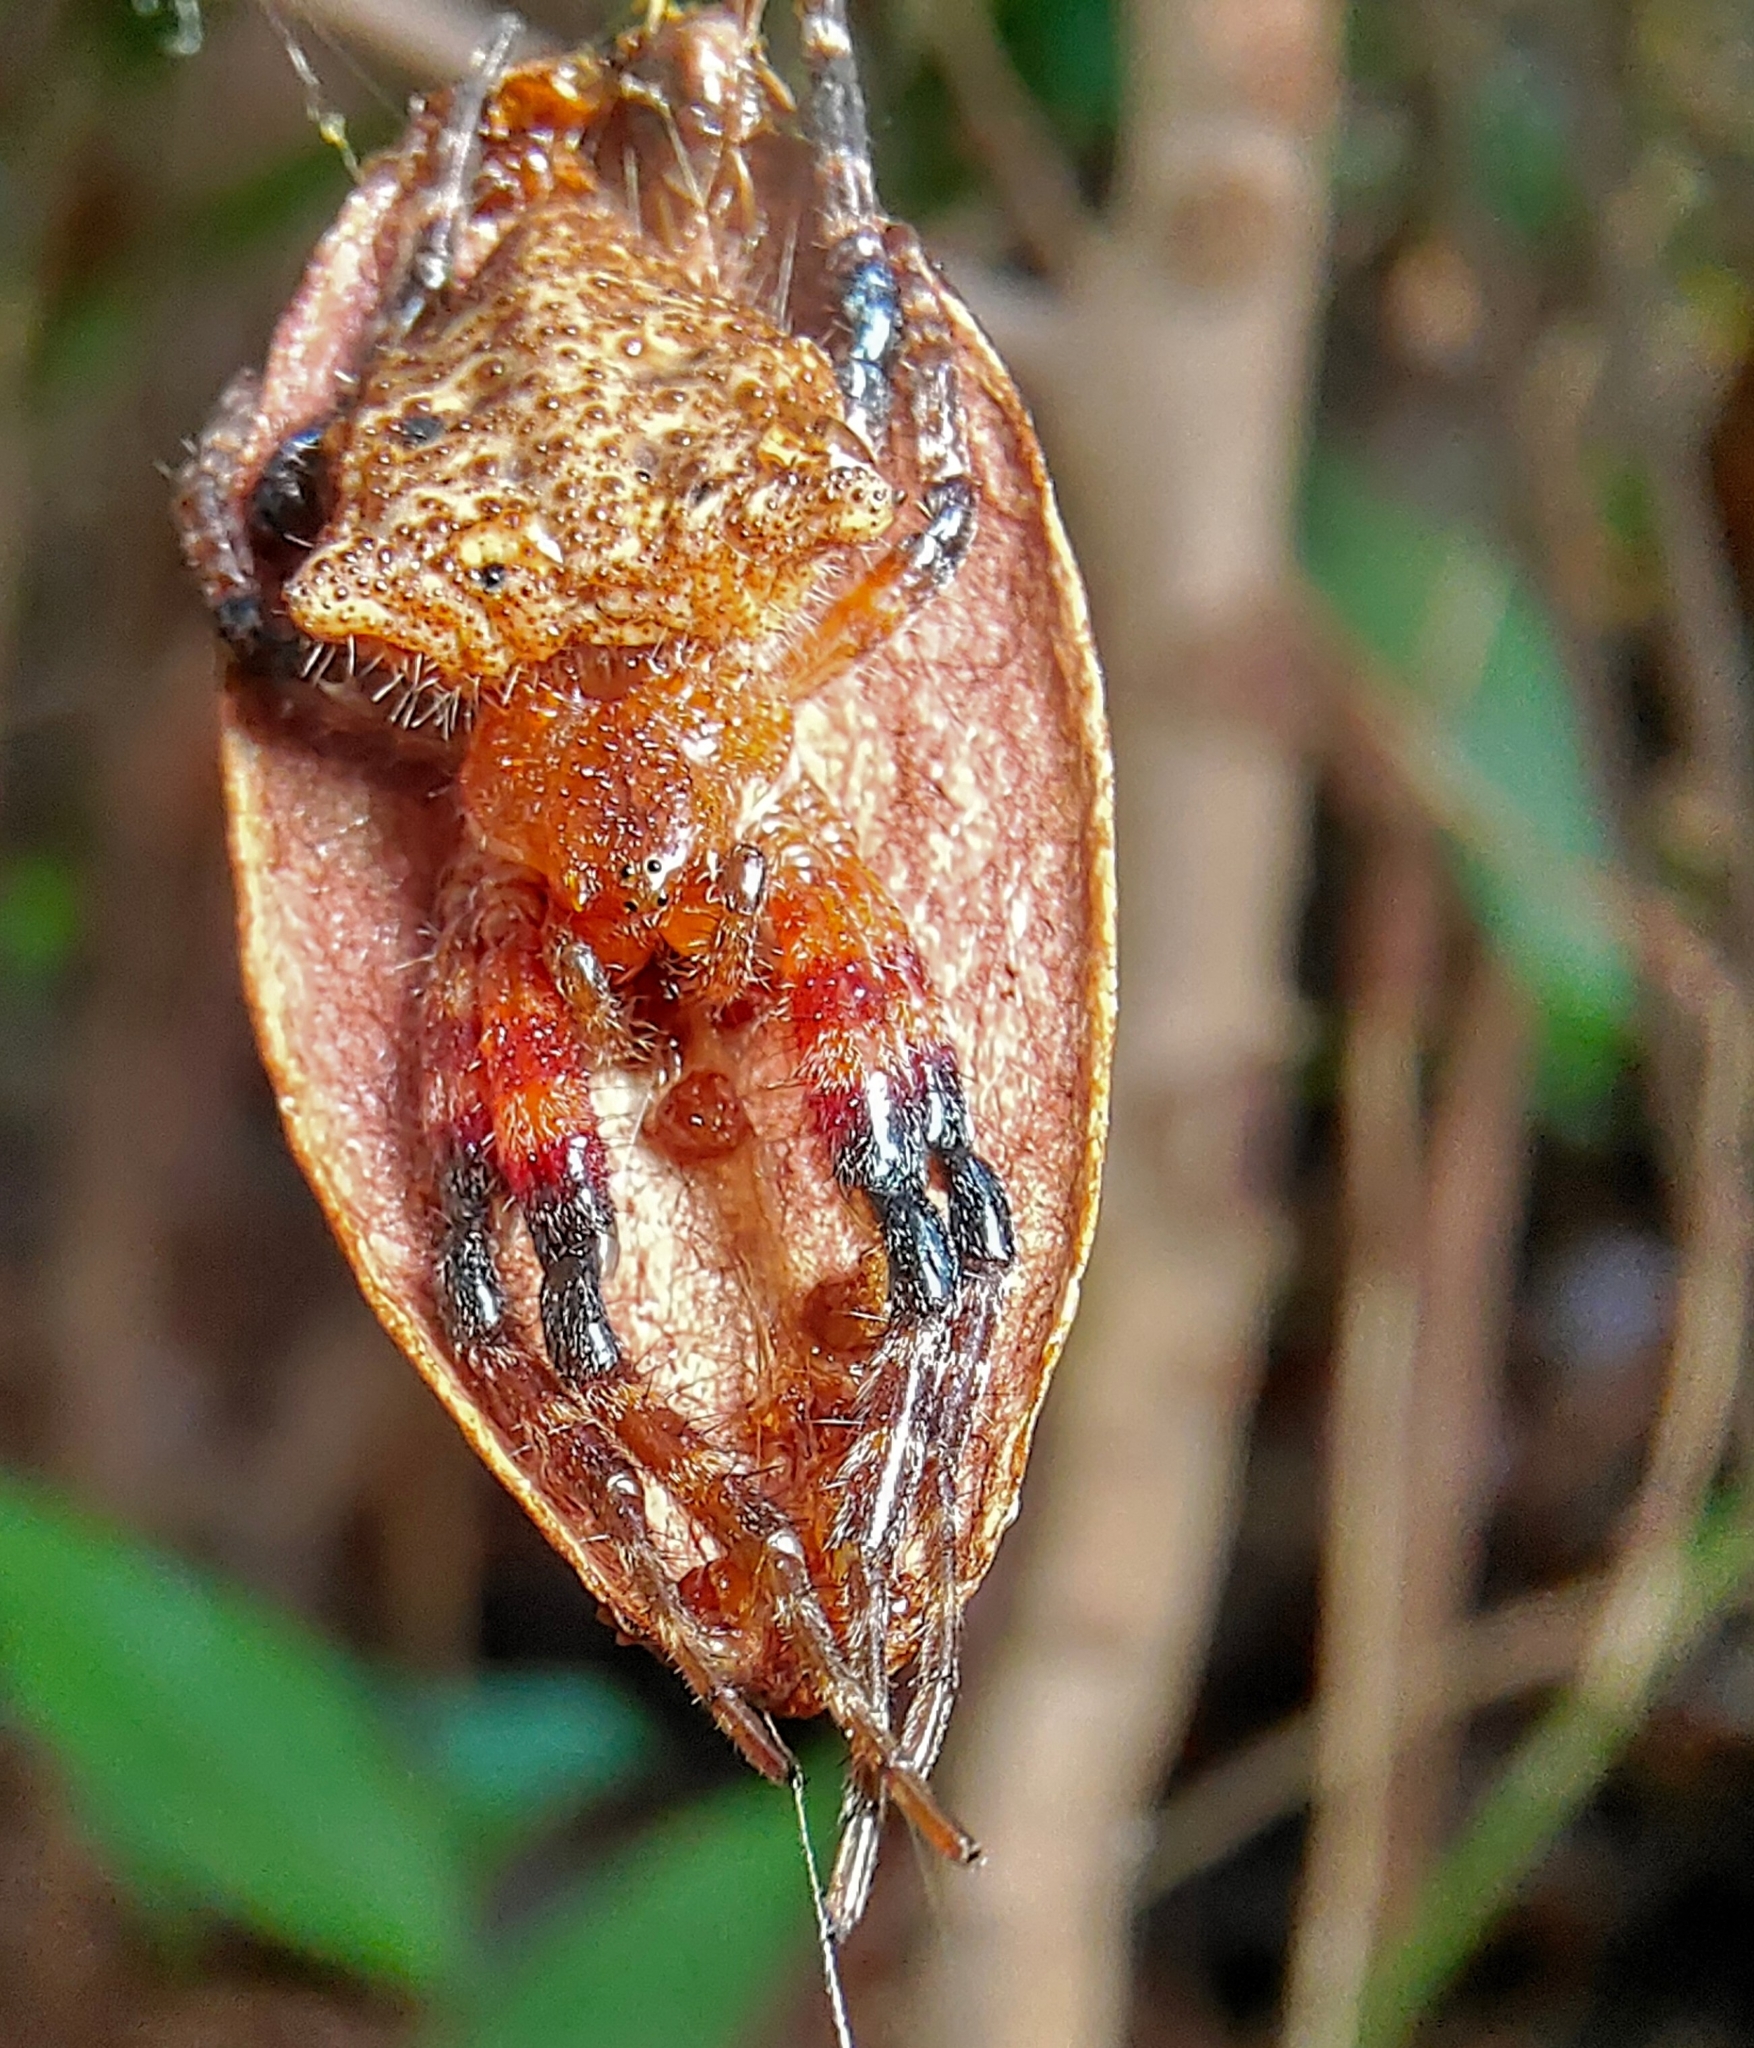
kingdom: Animalia
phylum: Arthropoda
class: Arachnida
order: Araneae
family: Araneidae
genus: Cyrtophora
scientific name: Cyrtophora unicolor
